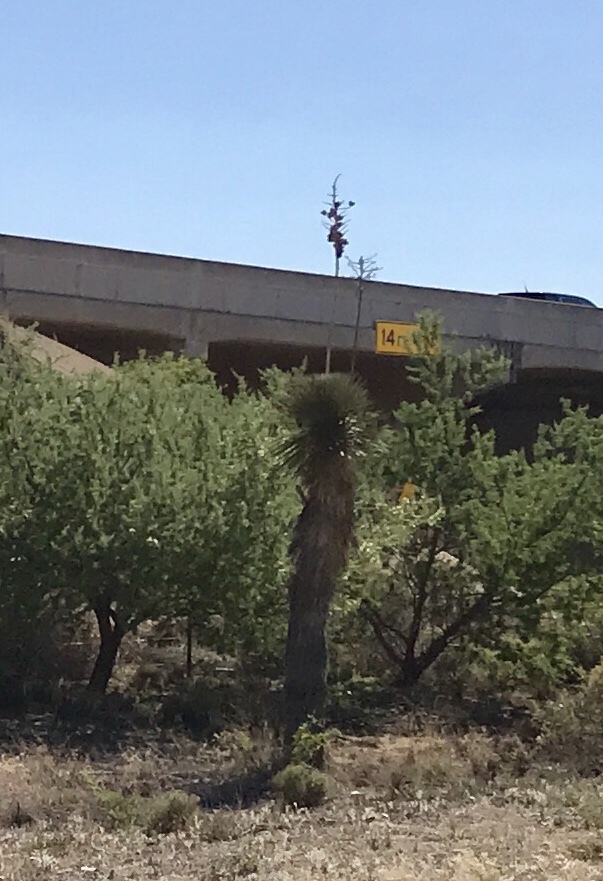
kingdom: Plantae
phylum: Tracheophyta
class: Liliopsida
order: Asparagales
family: Asparagaceae
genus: Yucca
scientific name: Yucca elata
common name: Palmella
